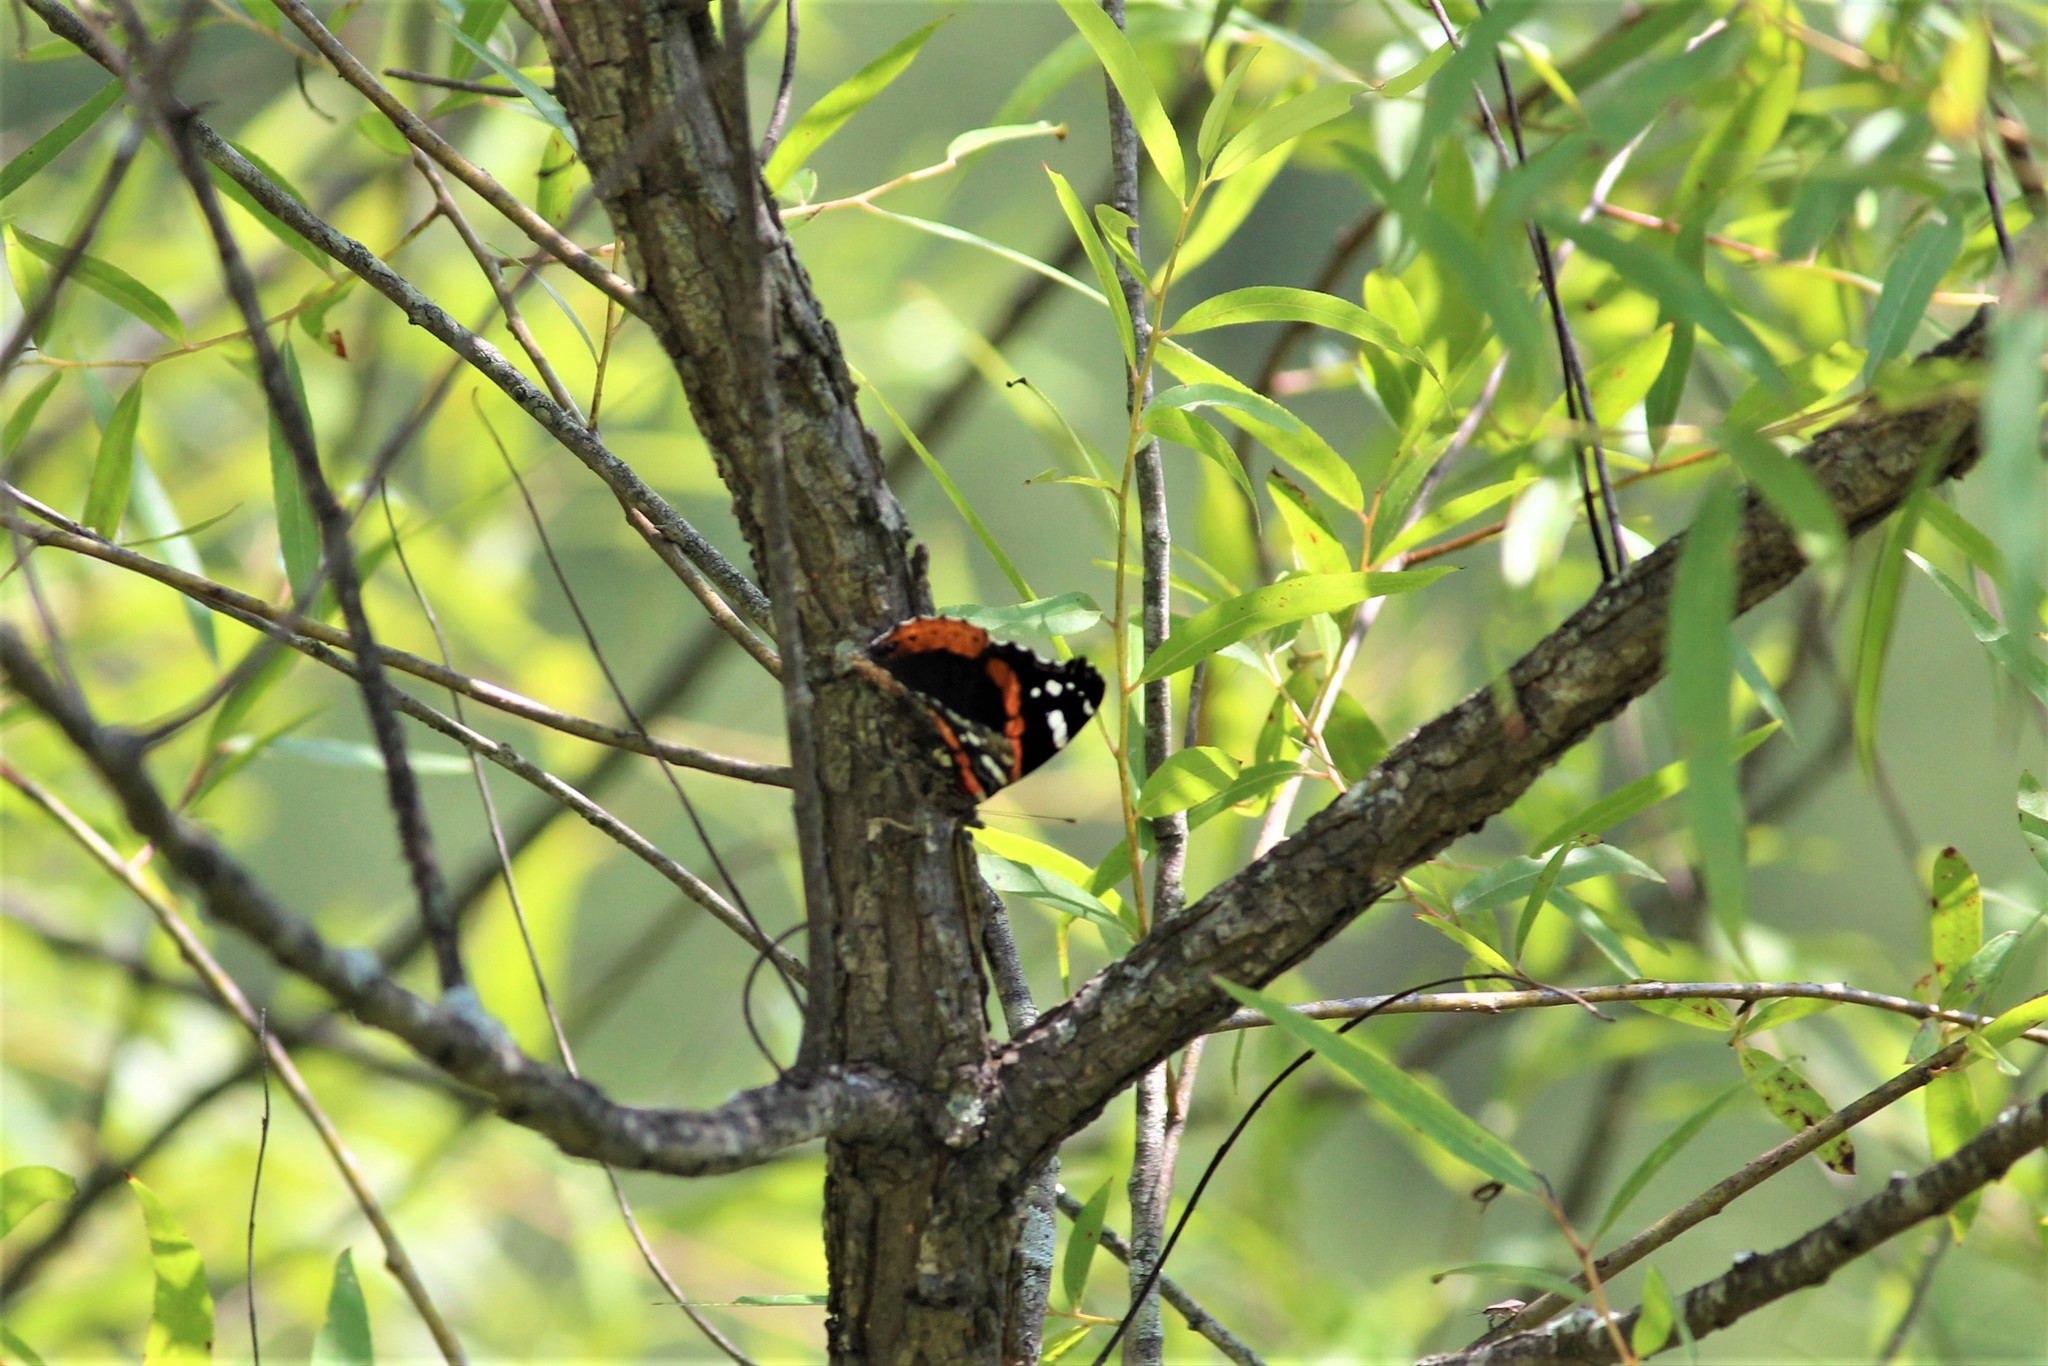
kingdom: Animalia
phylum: Arthropoda
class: Insecta
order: Lepidoptera
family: Nymphalidae
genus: Vanessa
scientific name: Vanessa atalanta
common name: Red admiral
